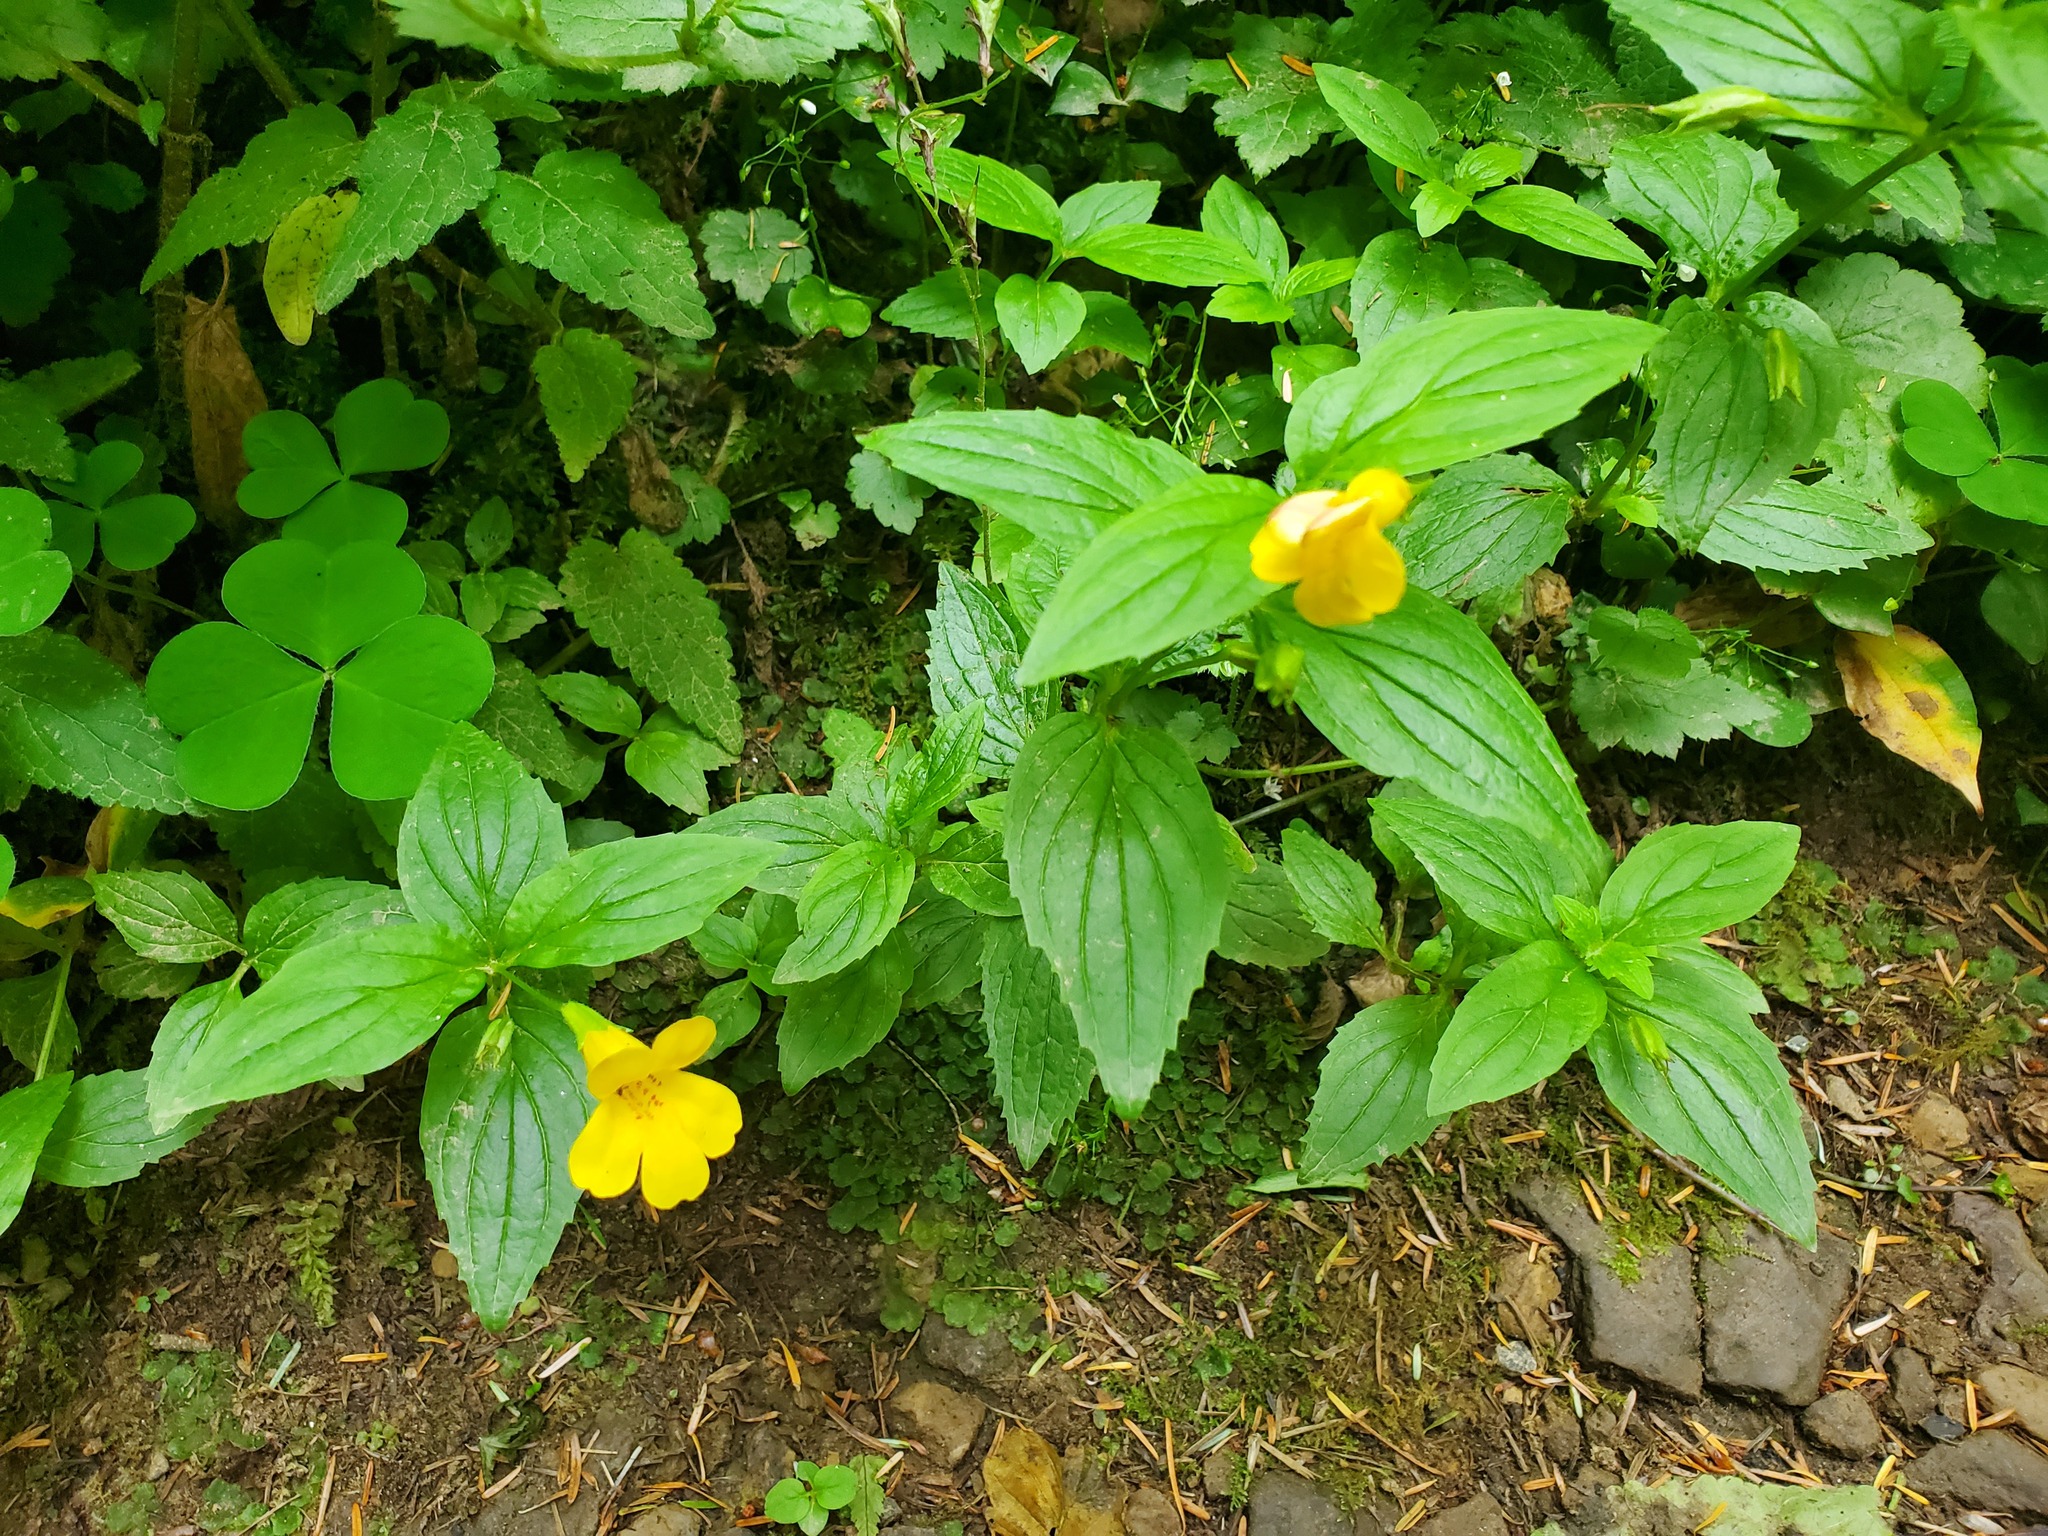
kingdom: Plantae
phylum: Tracheophyta
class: Magnoliopsida
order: Lamiales
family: Phrymaceae
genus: Erythranthe
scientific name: Erythranthe dentata
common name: Coastal monkeyflower
